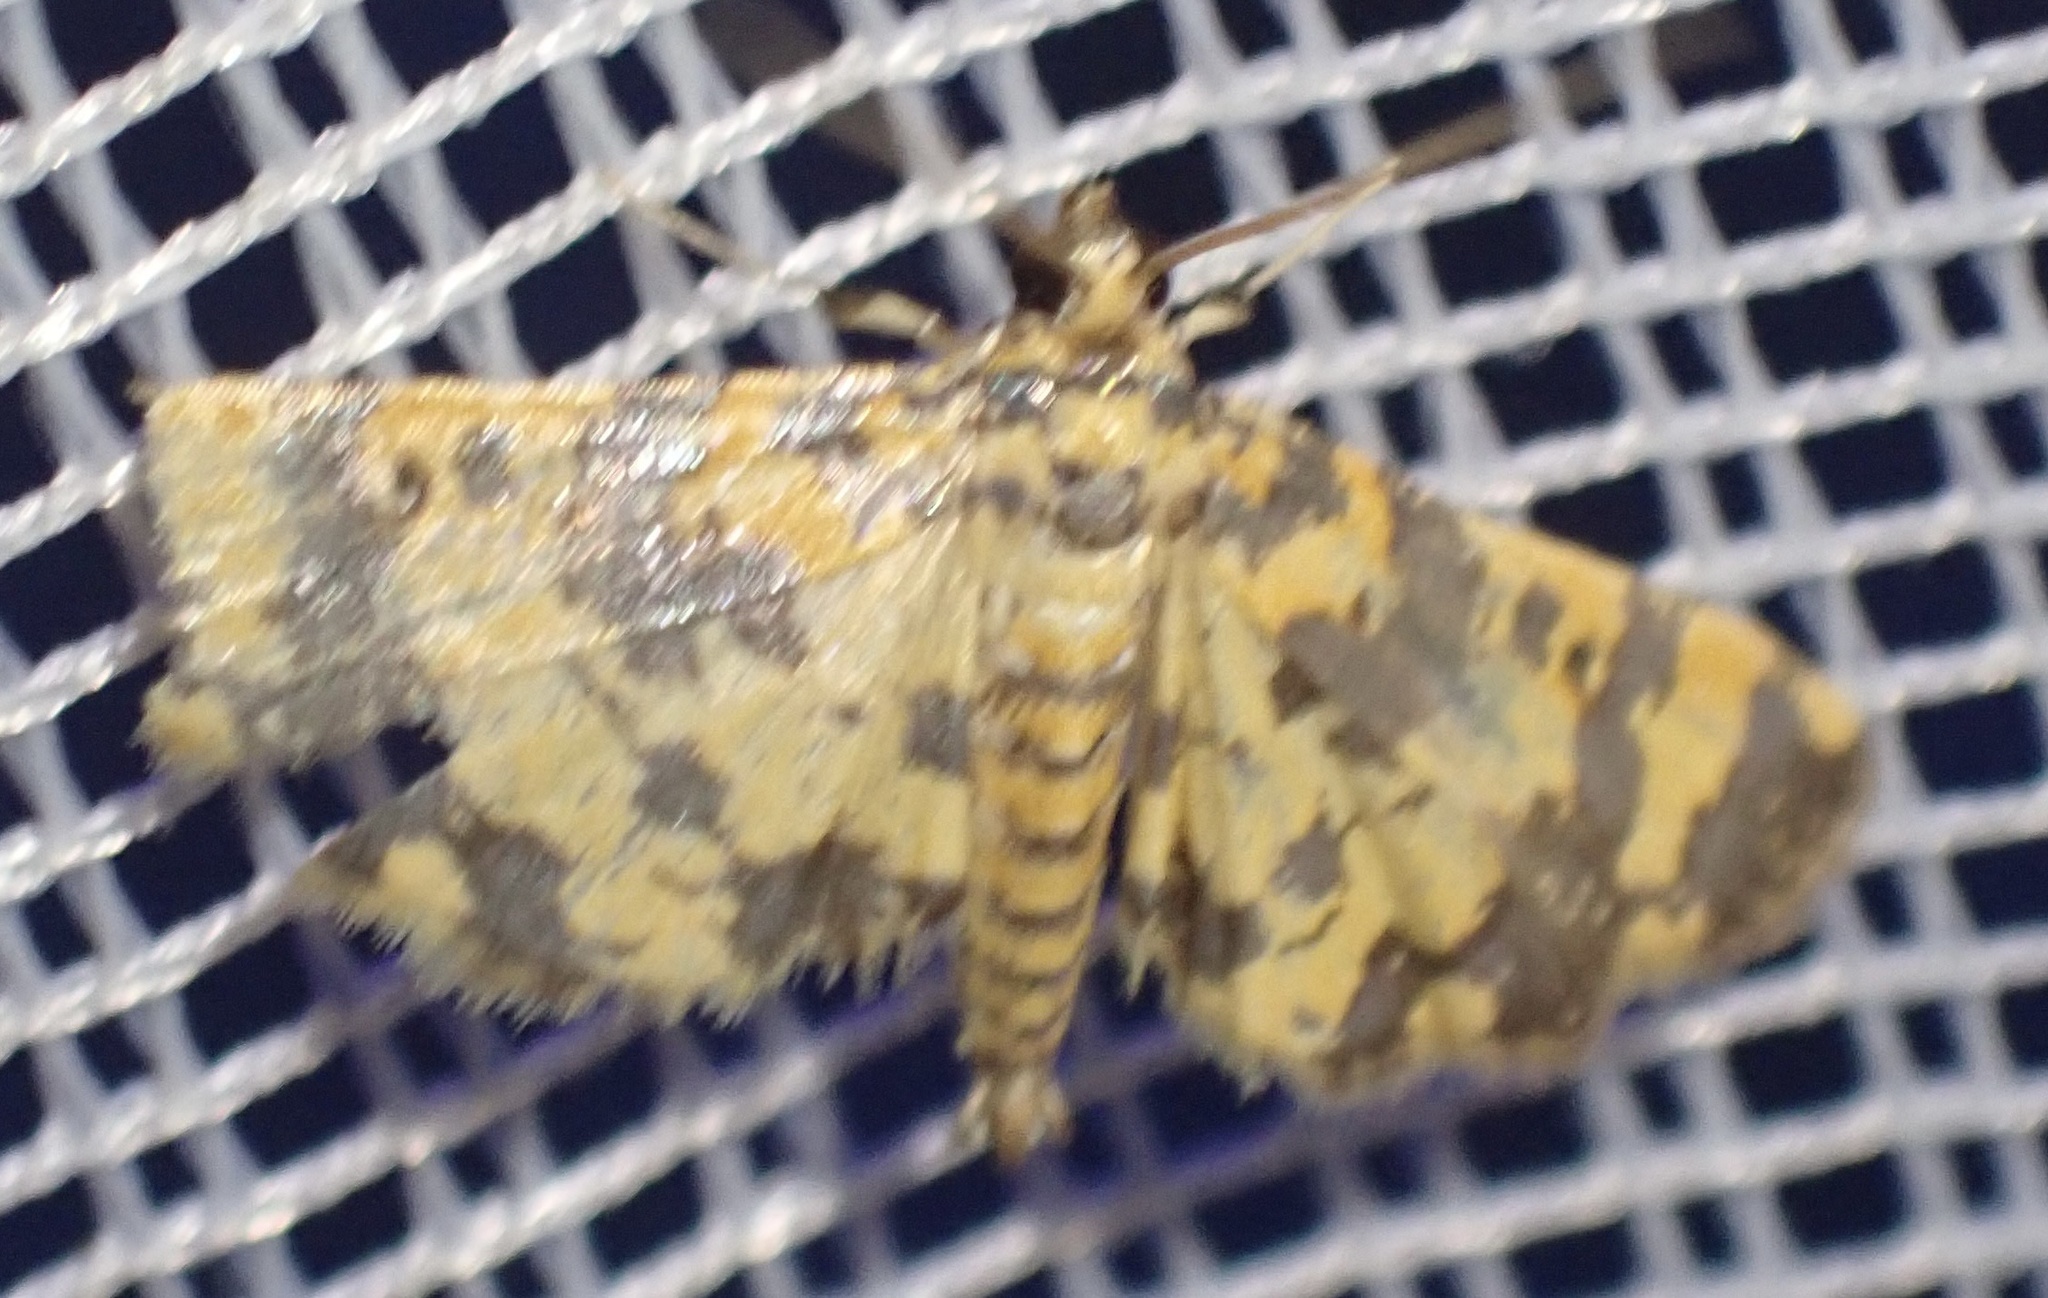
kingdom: Animalia
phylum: Arthropoda
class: Insecta
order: Lepidoptera
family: Crambidae
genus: Eurrhyparodes
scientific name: Eurrhyparodes tricoloralis
